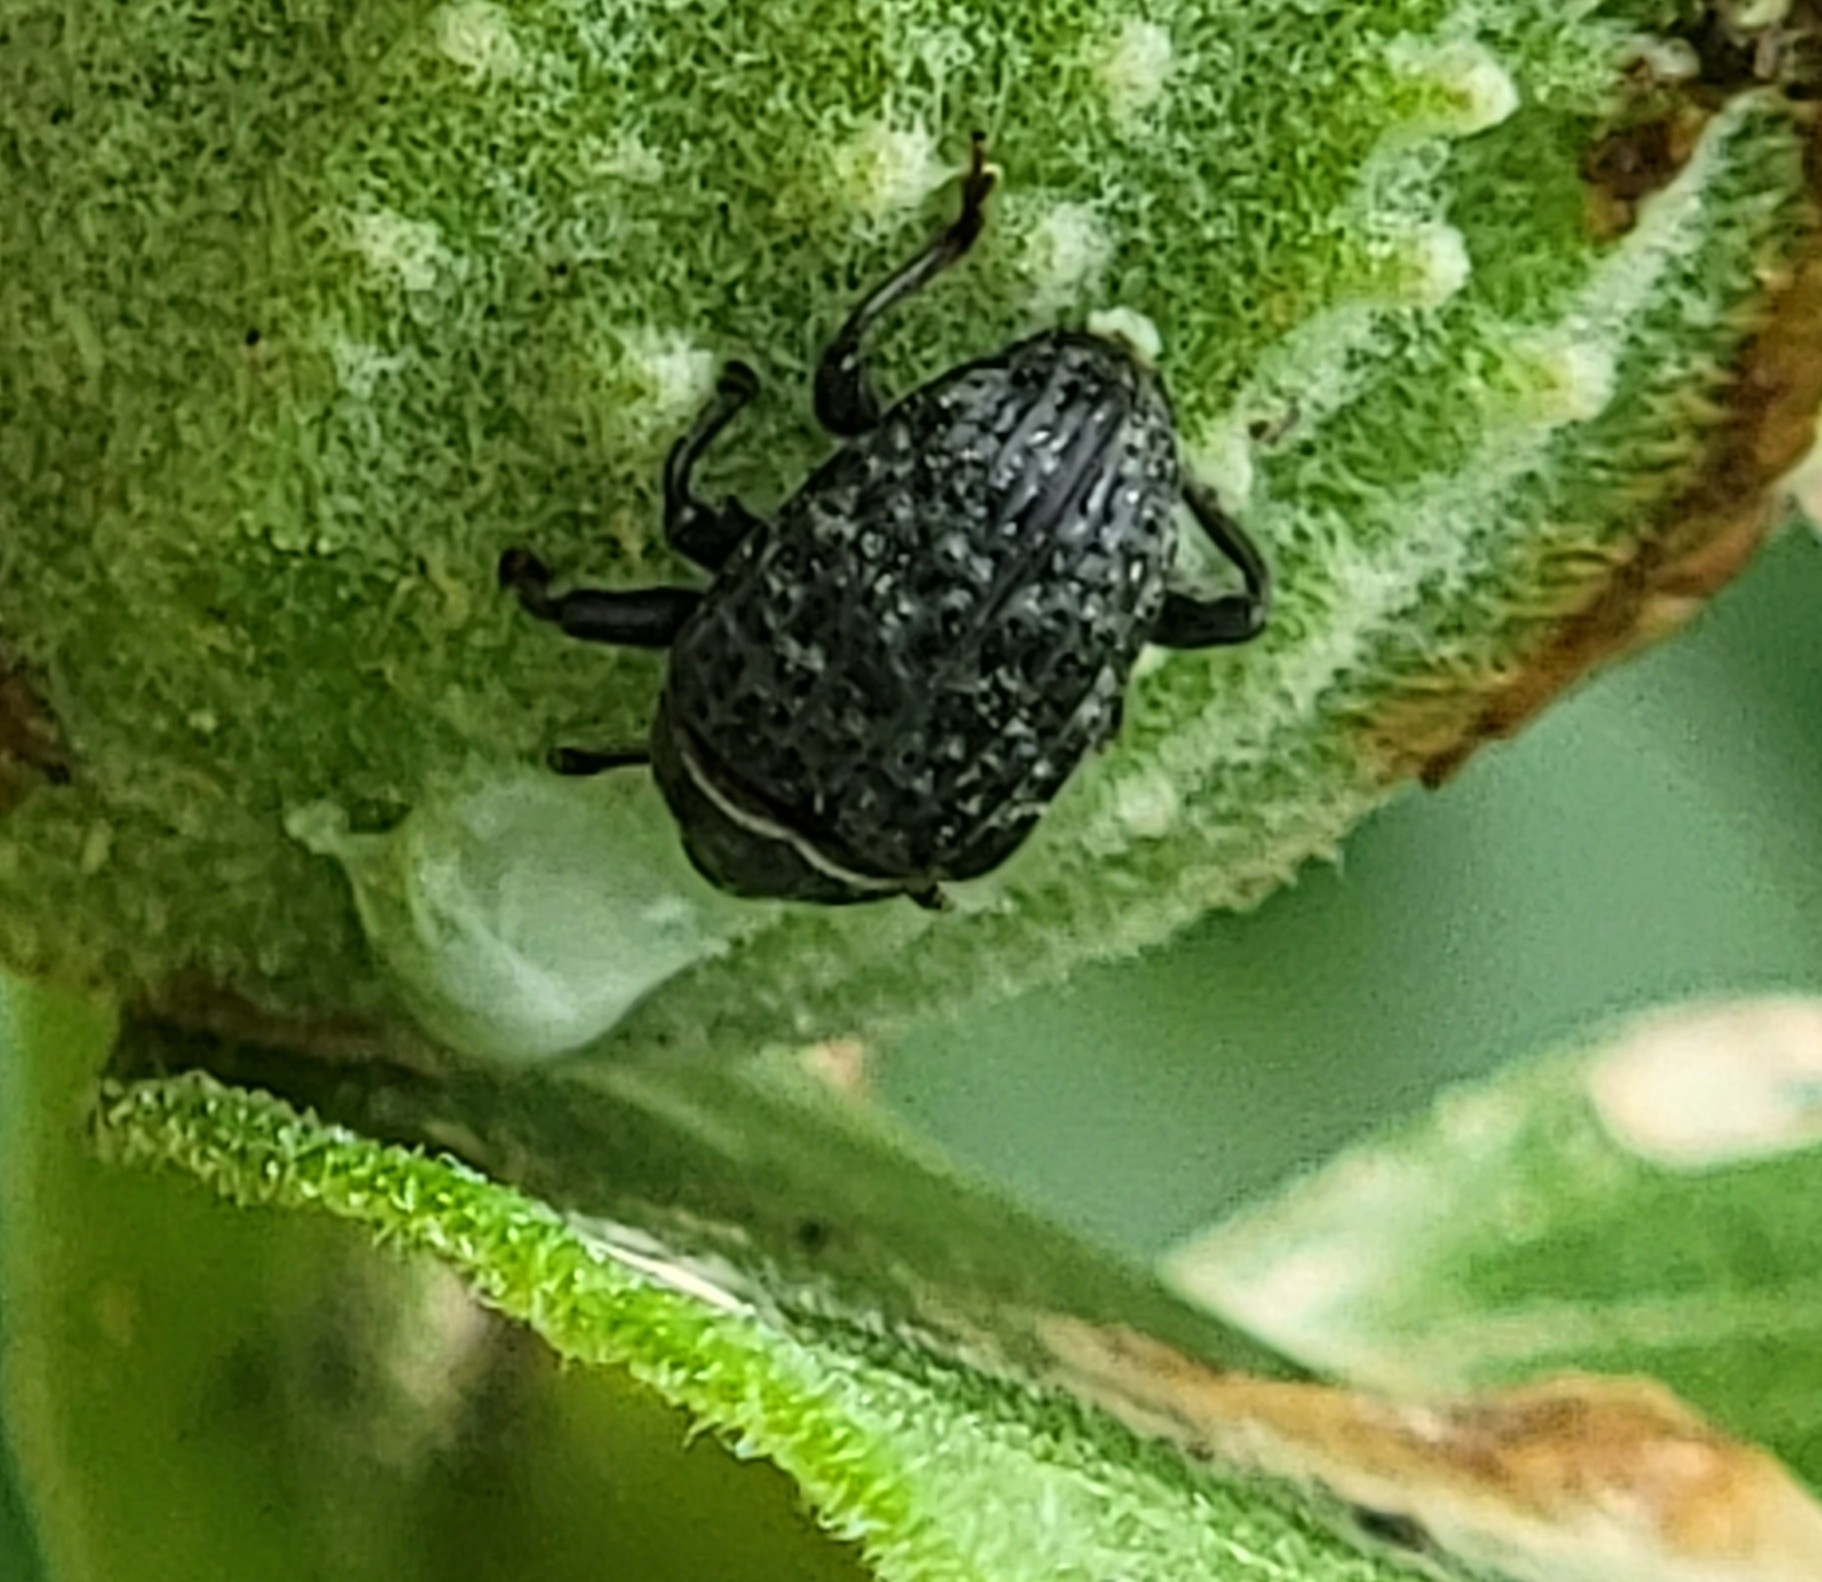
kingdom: Animalia
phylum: Arthropoda
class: Insecta
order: Coleoptera
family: Curculionidae
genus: Rhyssomatus
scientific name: Rhyssomatus lineaticollis
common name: Milkweed stem weevil
